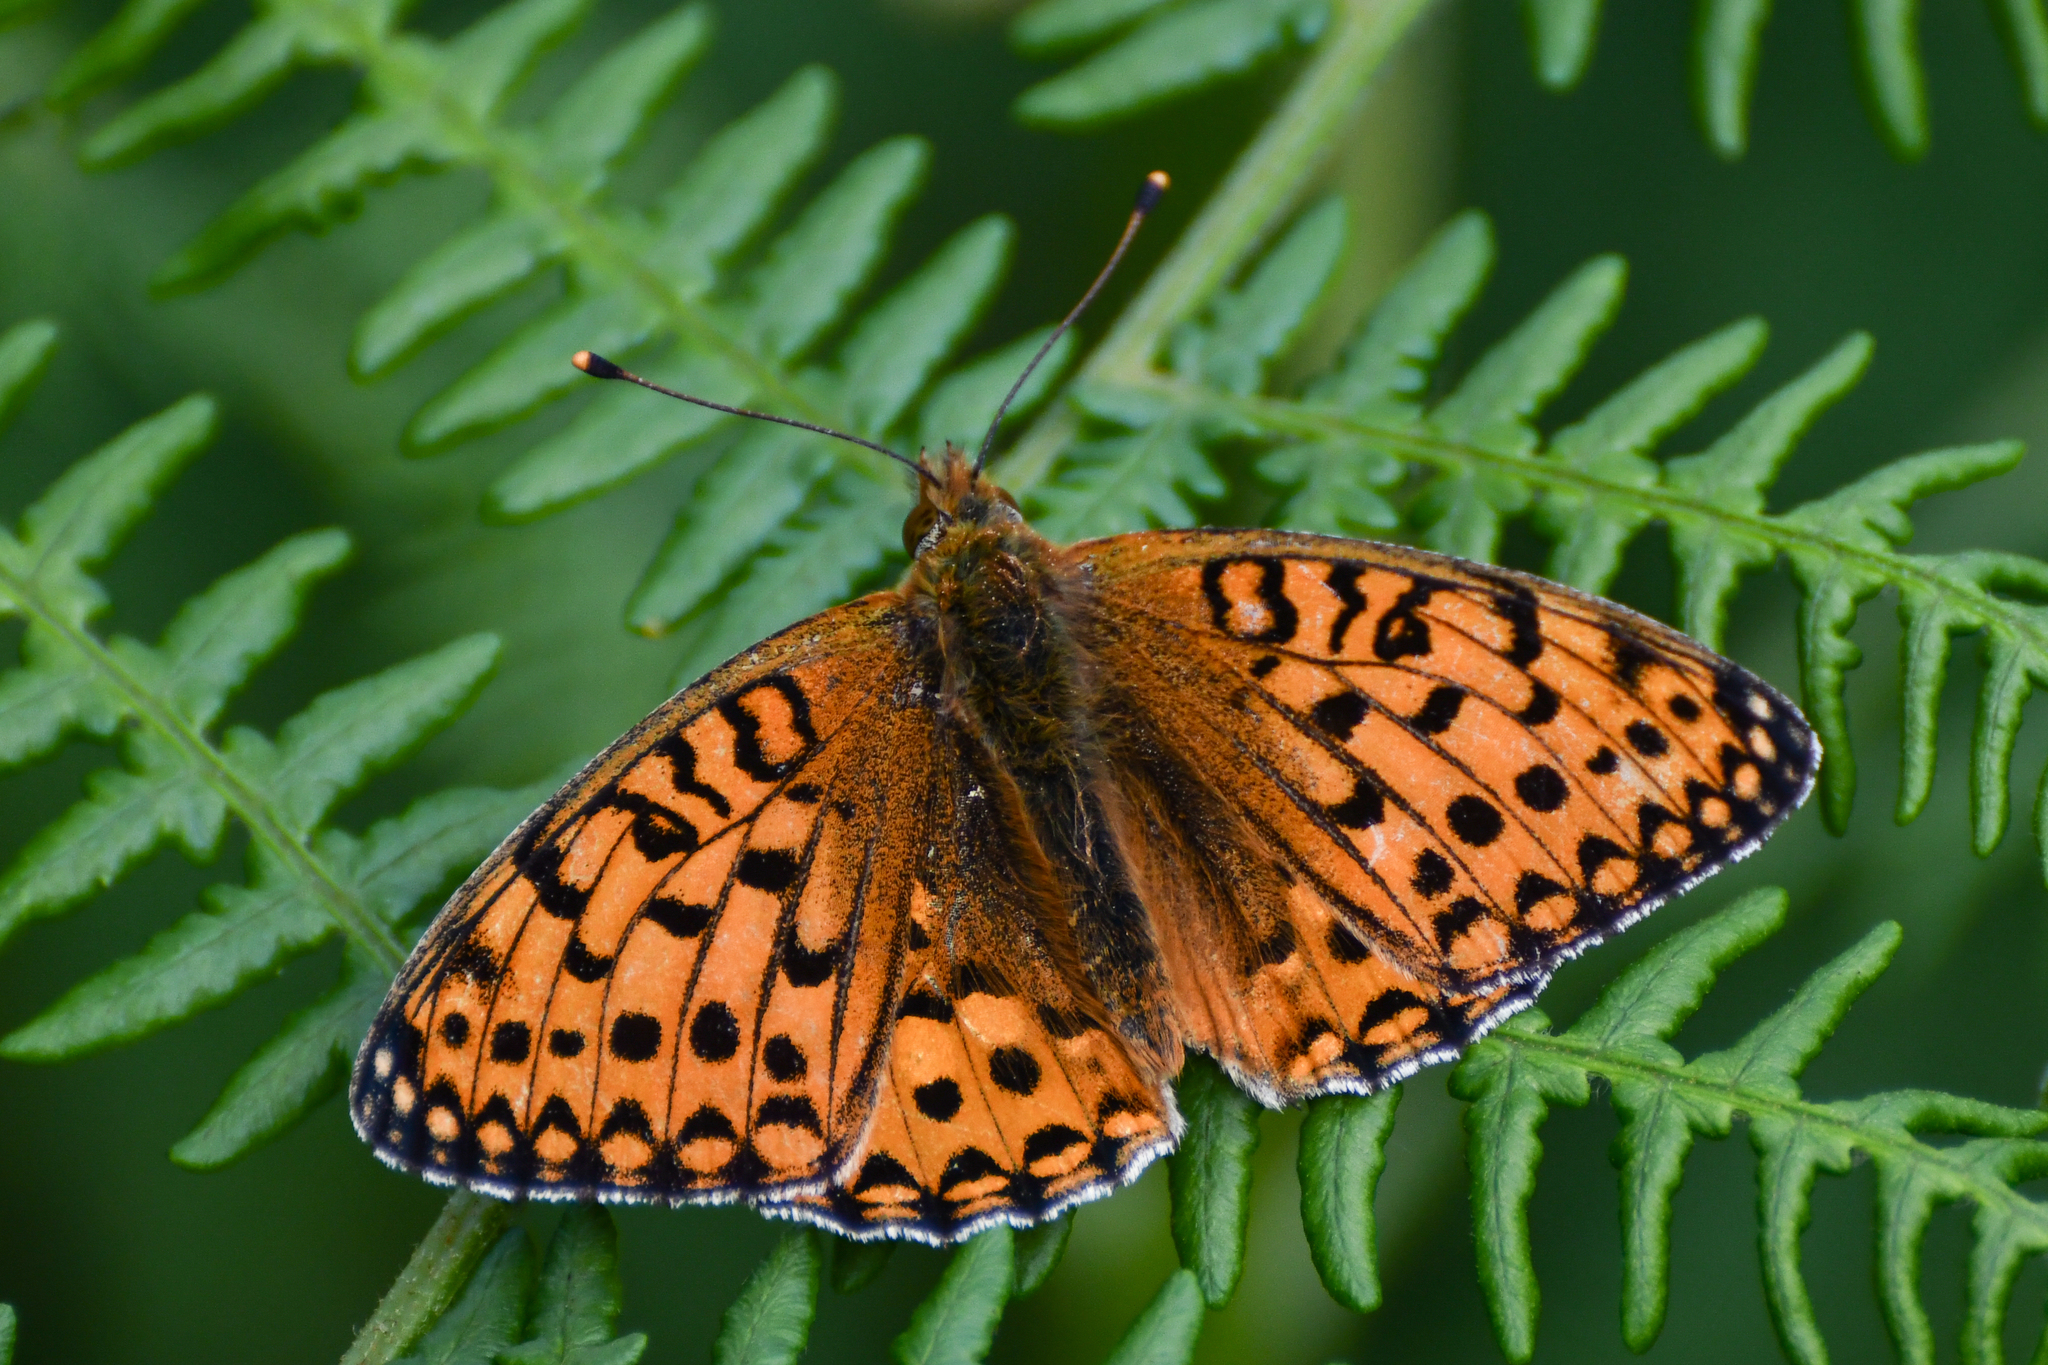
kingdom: Animalia
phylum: Arthropoda
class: Insecta
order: Lepidoptera
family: Nymphalidae
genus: Speyeria
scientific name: Speyeria aglaja
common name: Dark green fritillary
